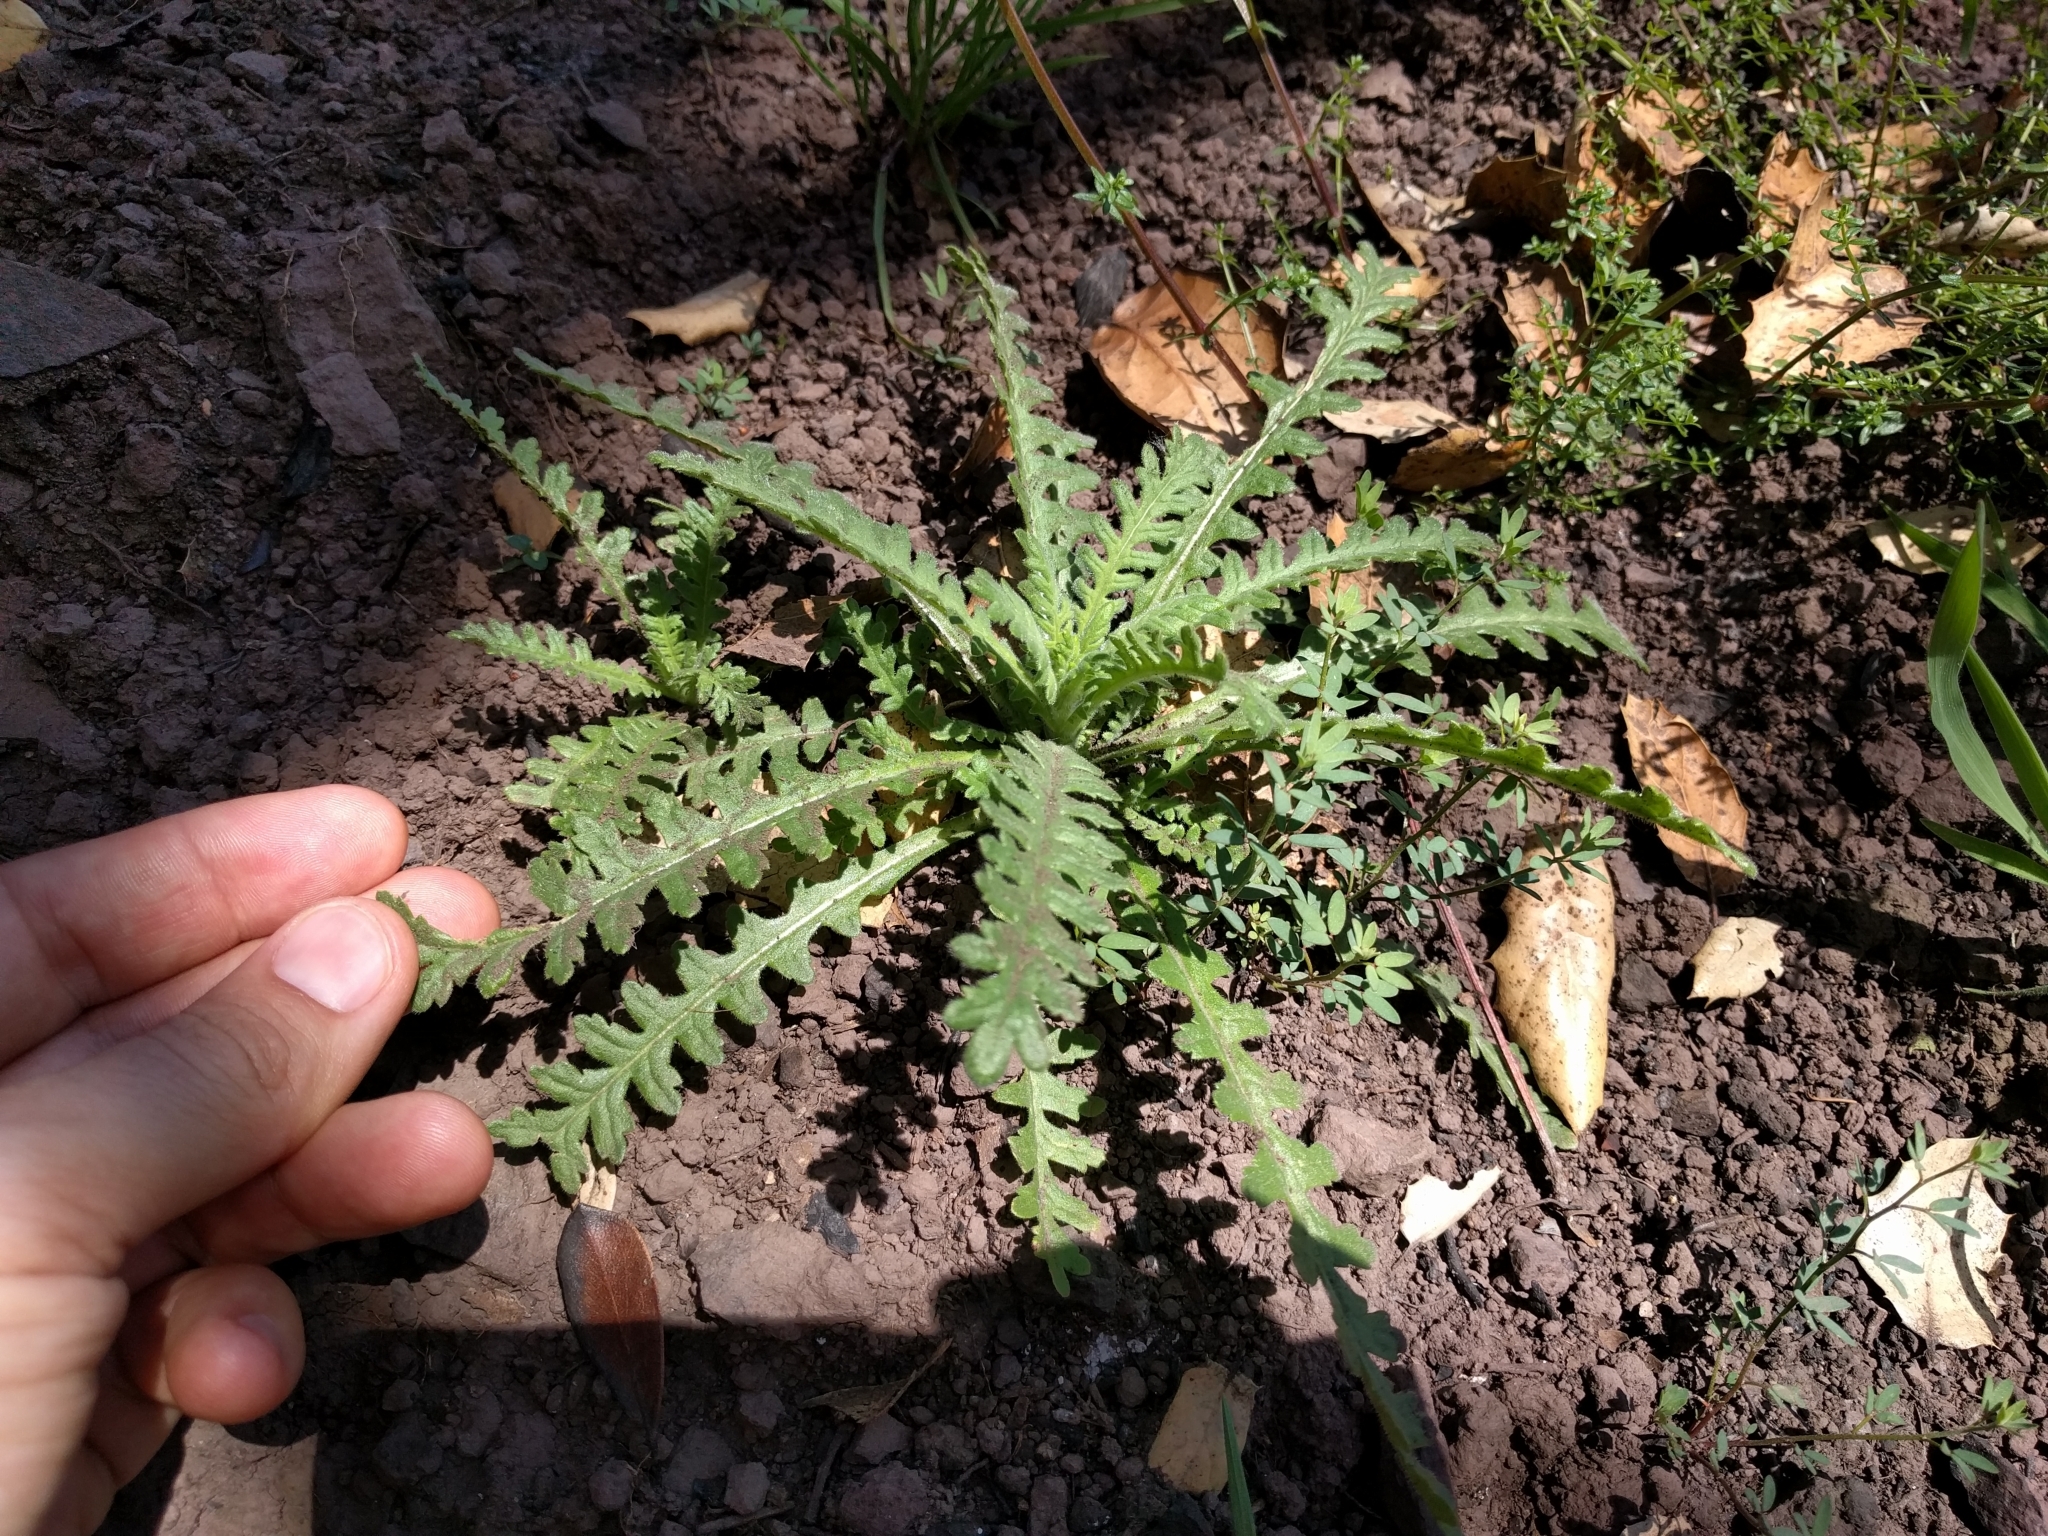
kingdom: Plantae
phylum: Tracheophyta
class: Magnoliopsida
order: Boraginales
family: Hydrophyllaceae
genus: Emmenanthe
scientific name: Emmenanthe penduliflora
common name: Whispering-bells
